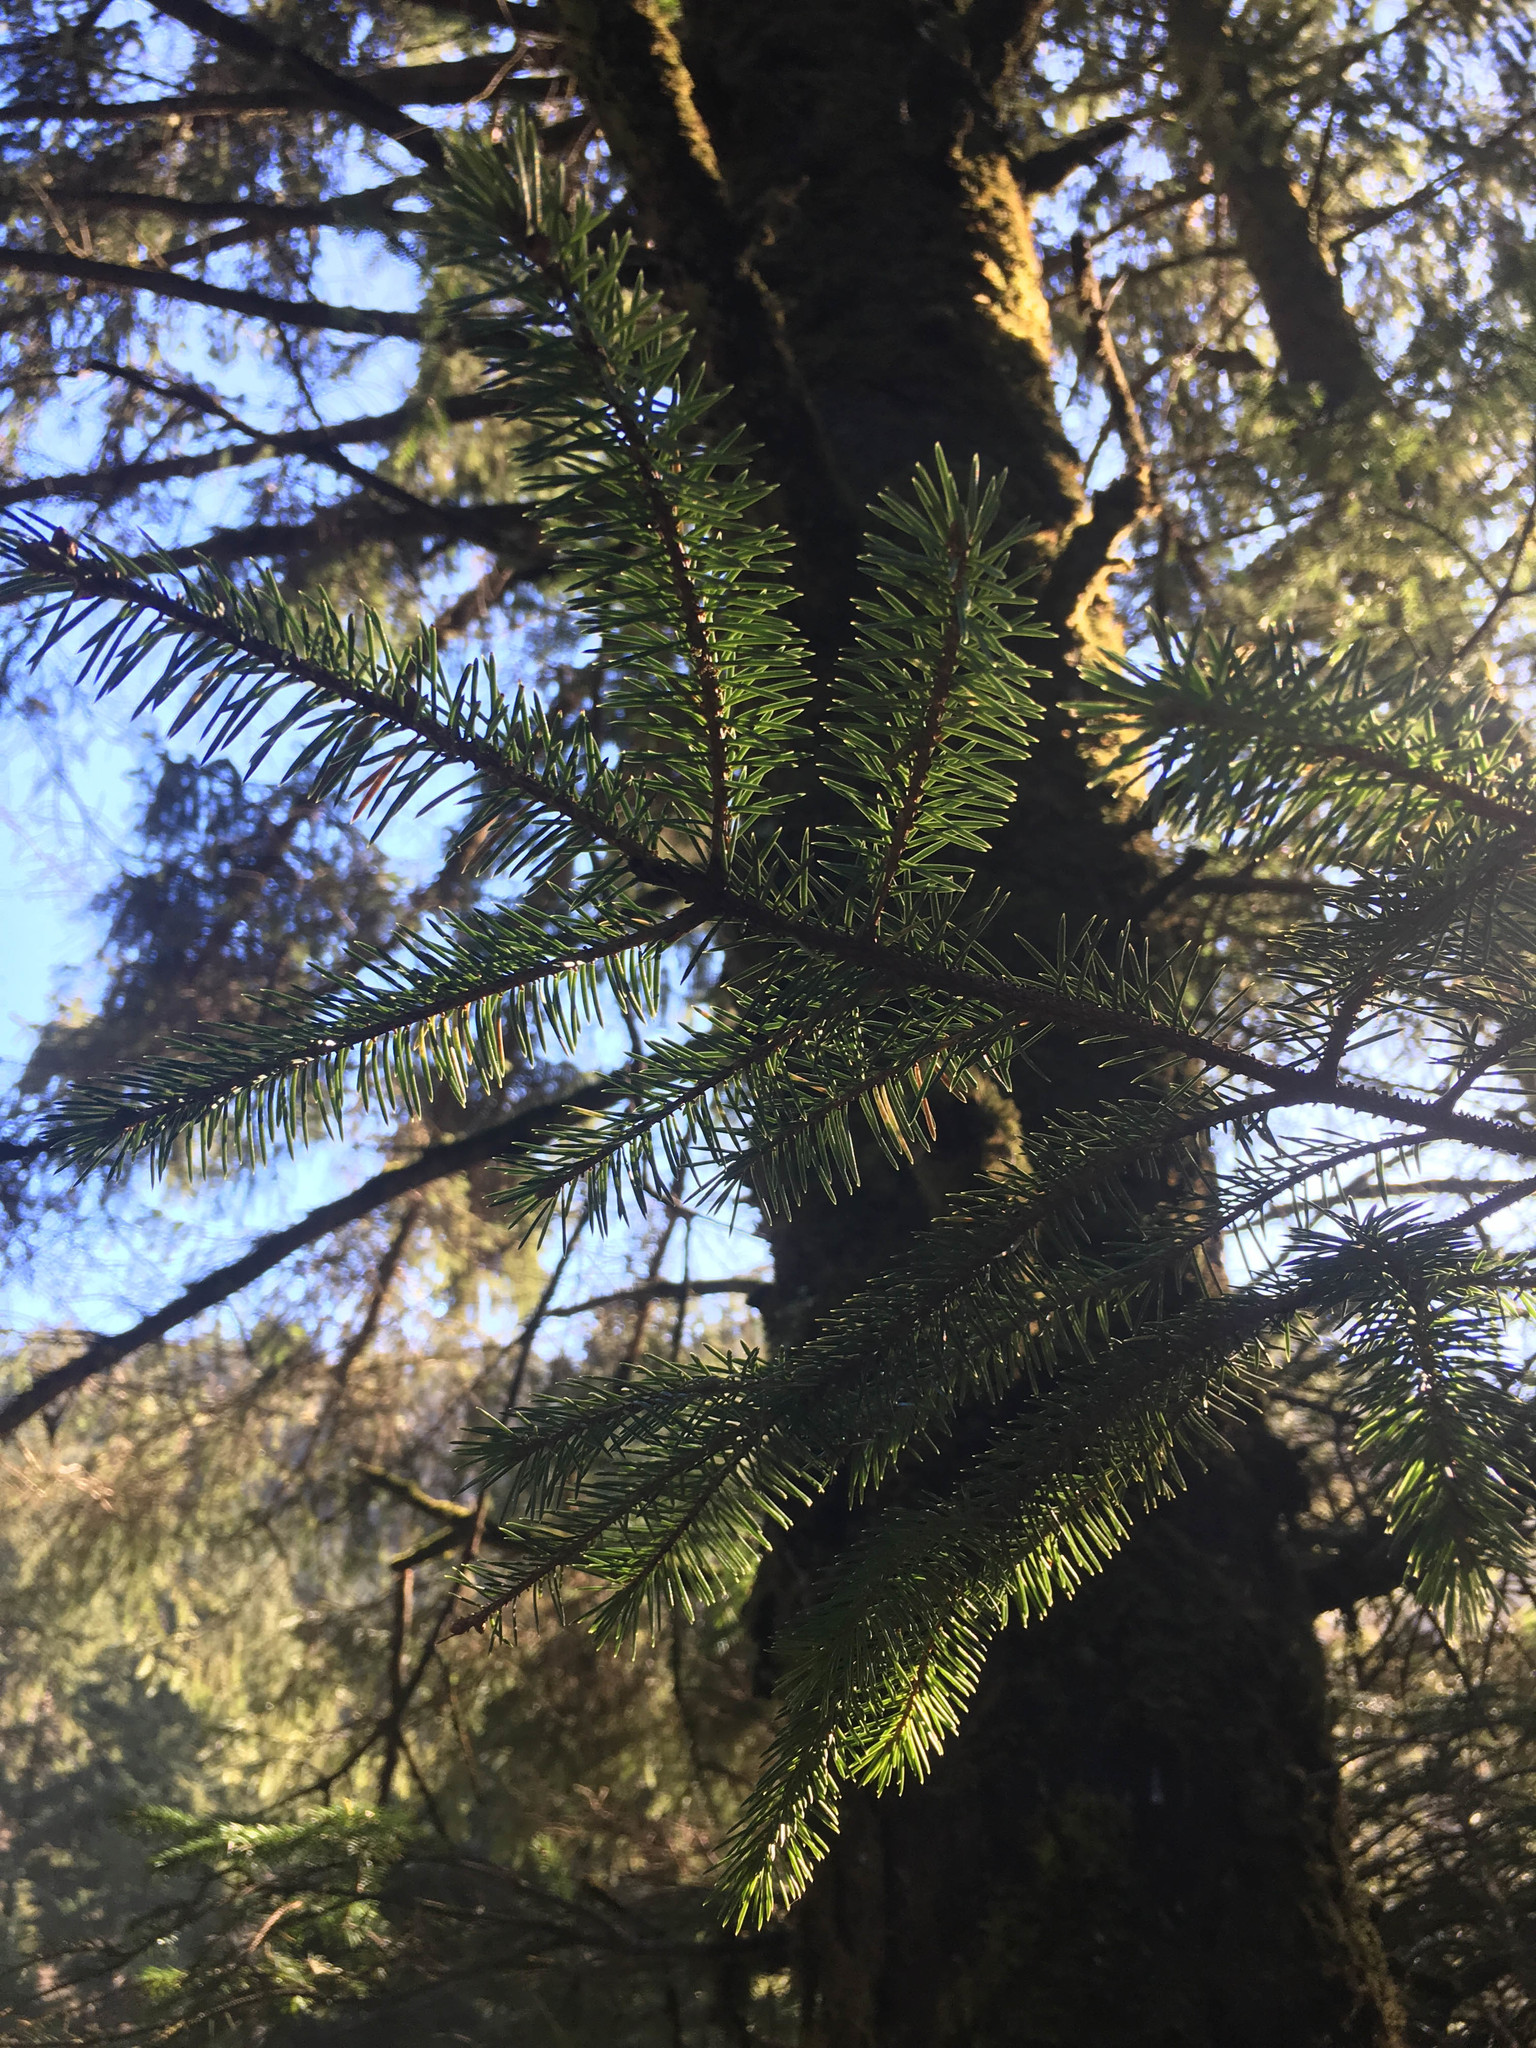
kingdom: Plantae
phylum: Tracheophyta
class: Pinopsida
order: Pinales
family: Pinaceae
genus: Picea
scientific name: Picea sitchensis
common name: Sitka spruce
